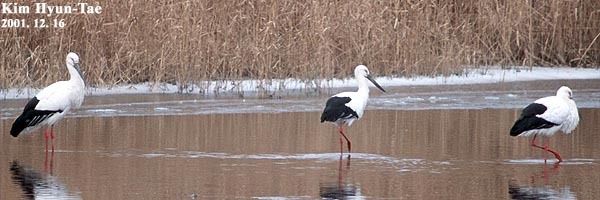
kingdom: Animalia
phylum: Chordata
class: Aves
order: Ciconiiformes
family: Ciconiidae
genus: Ciconia
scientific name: Ciconia boyciana
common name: Oriental stork
